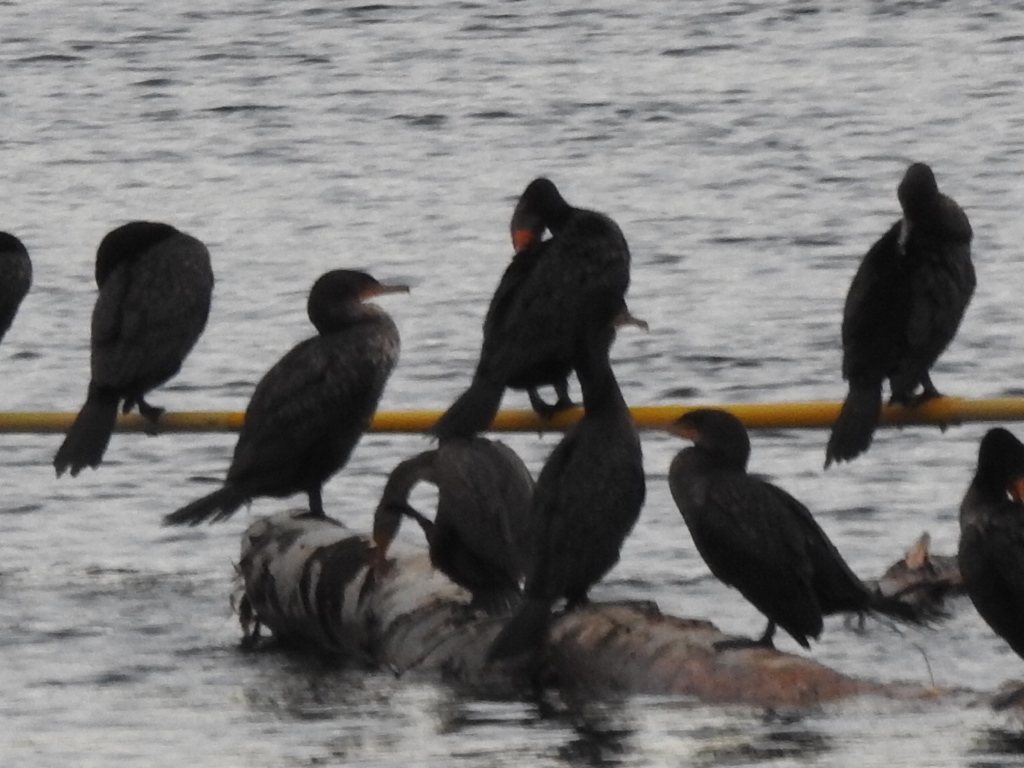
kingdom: Animalia
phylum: Chordata
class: Aves
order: Suliformes
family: Phalacrocoracidae
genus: Phalacrocorax
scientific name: Phalacrocorax auritus
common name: Double-crested cormorant
